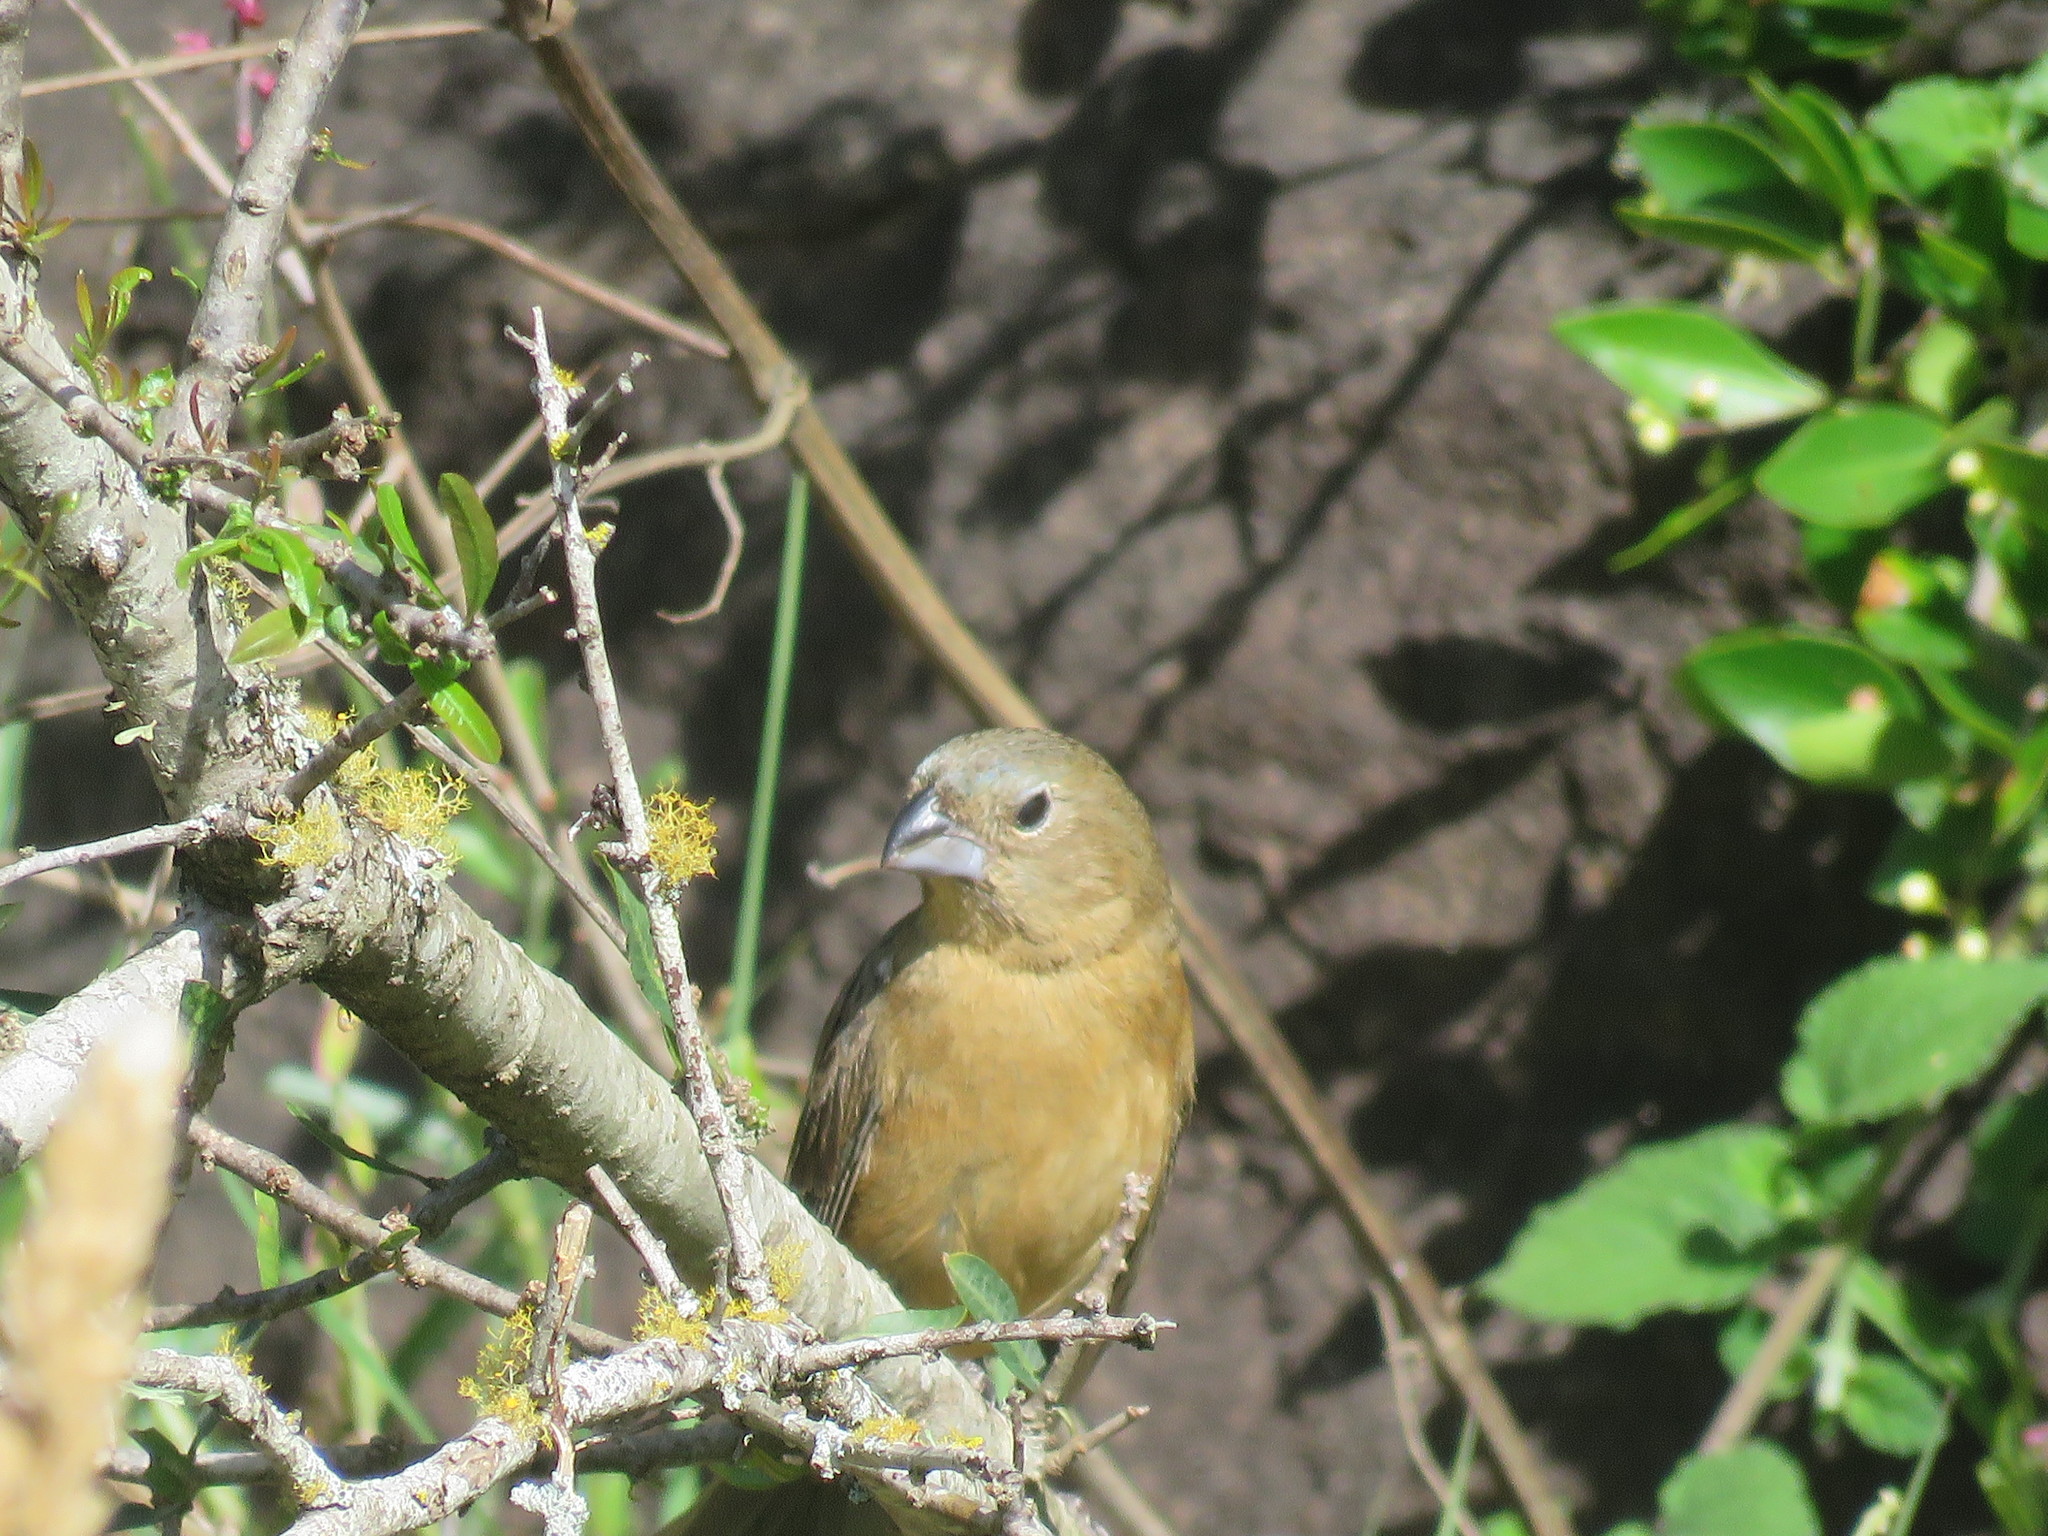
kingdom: Animalia
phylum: Chordata
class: Aves
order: Passeriformes
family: Cardinalidae
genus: Cyanoloxia
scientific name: Cyanoloxia glaucocaerulea
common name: Glaucous-blue grosbeak
